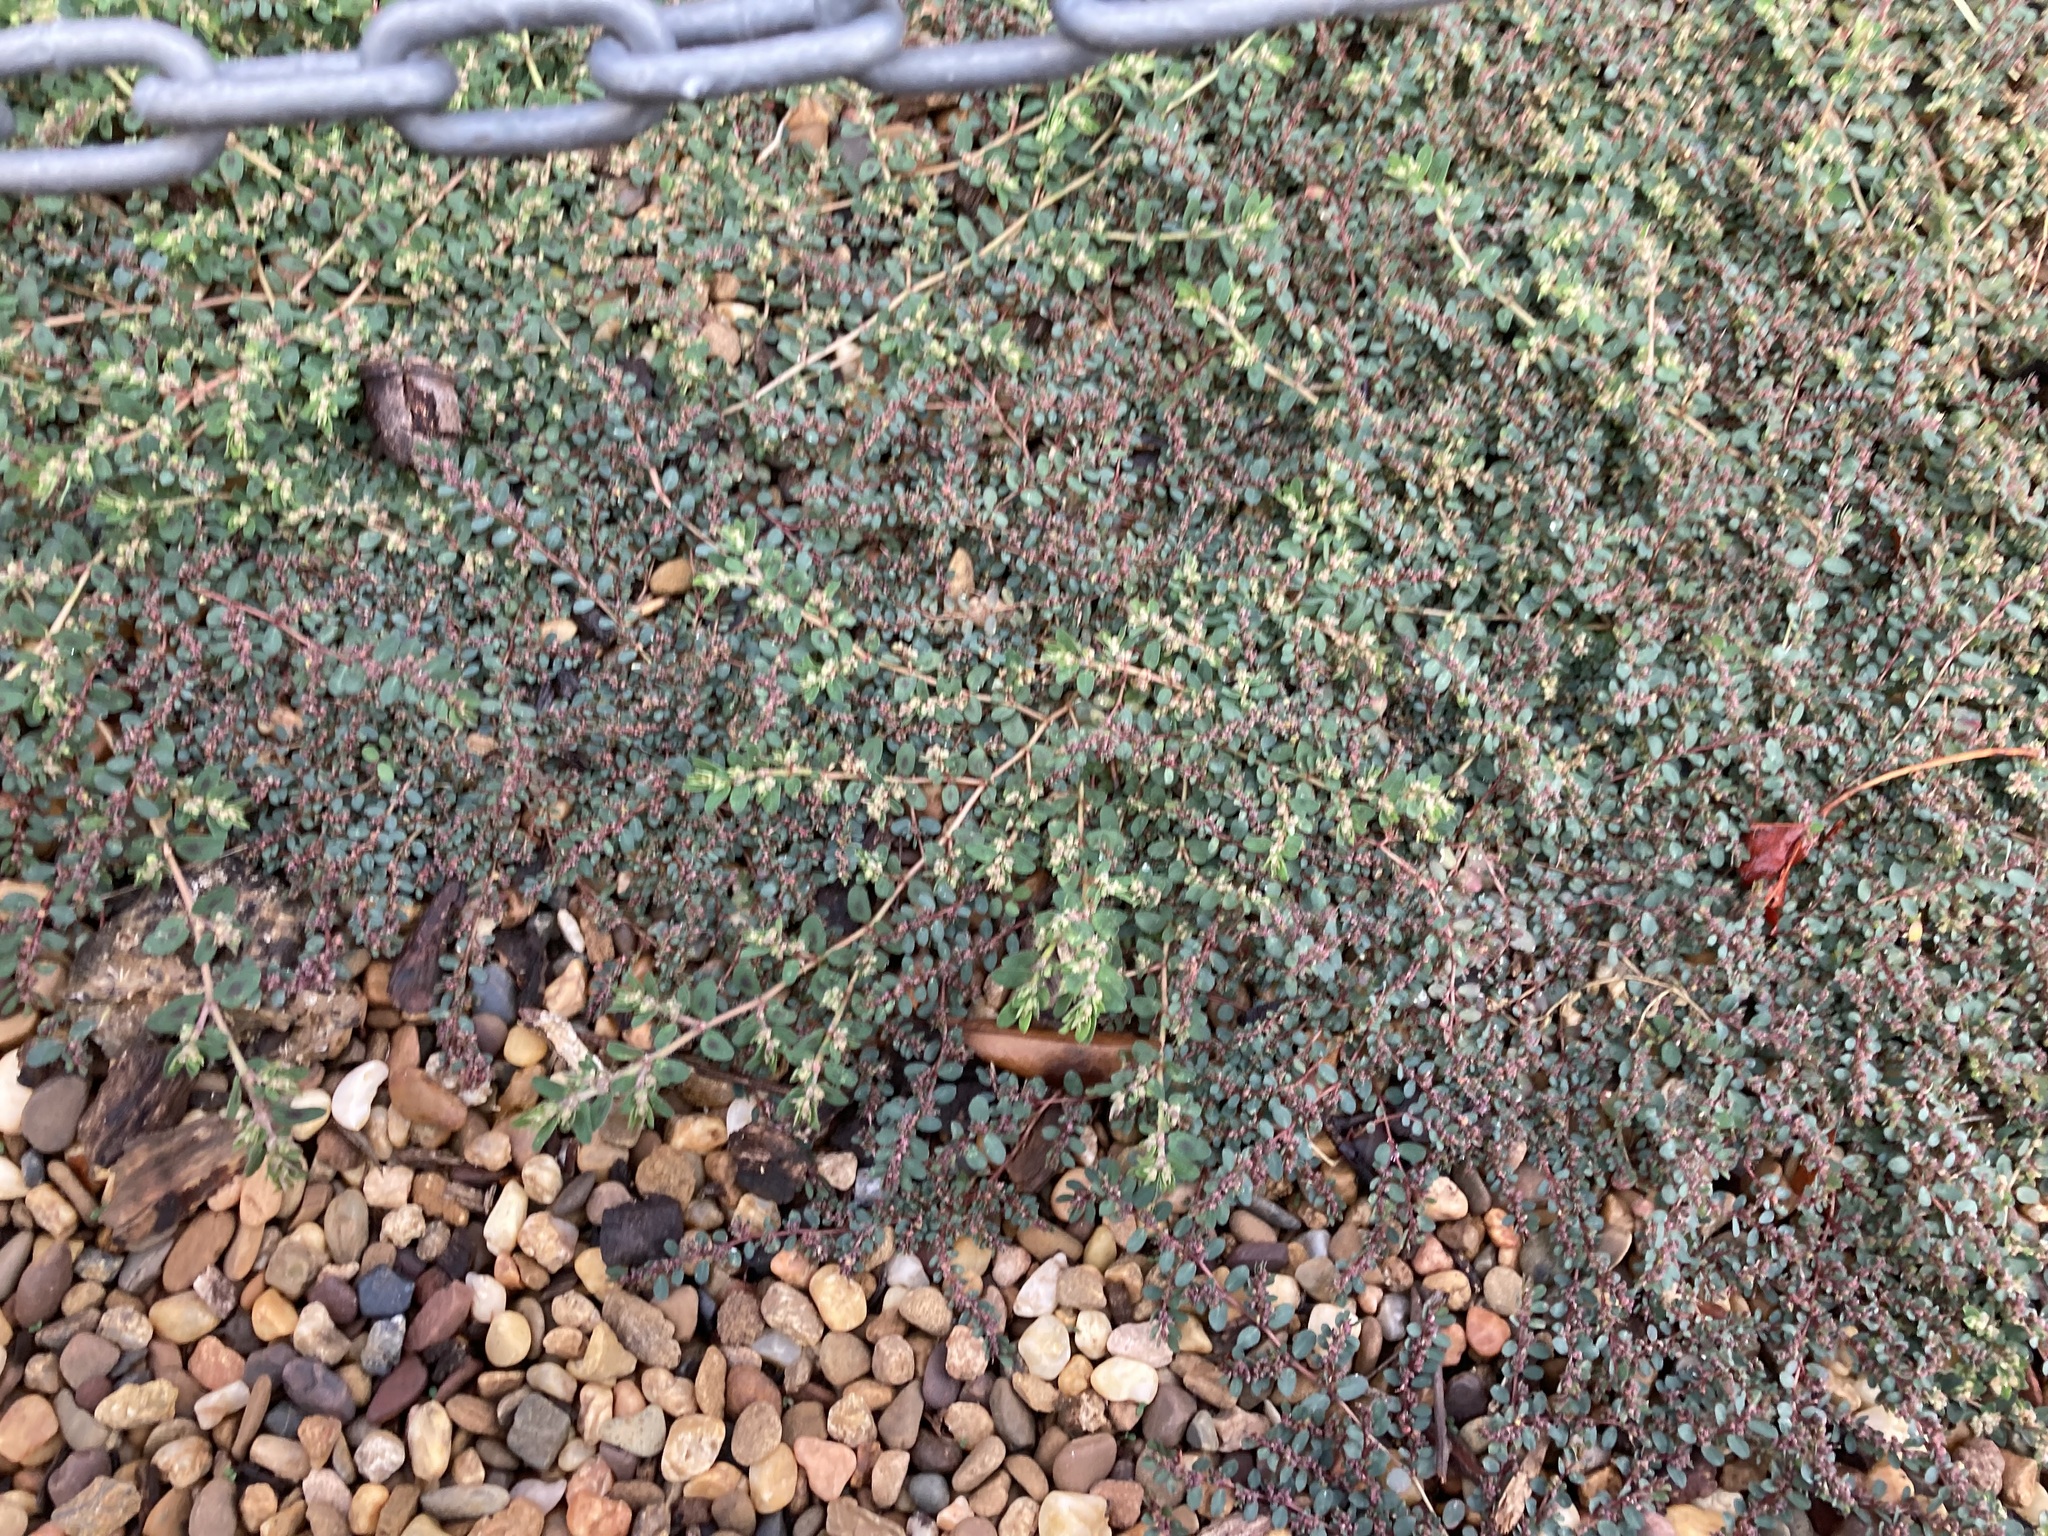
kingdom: Plantae
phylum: Tracheophyta
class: Magnoliopsida
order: Malpighiales
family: Euphorbiaceae
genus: Euphorbia
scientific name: Euphorbia maculata
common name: Spotted spurge
